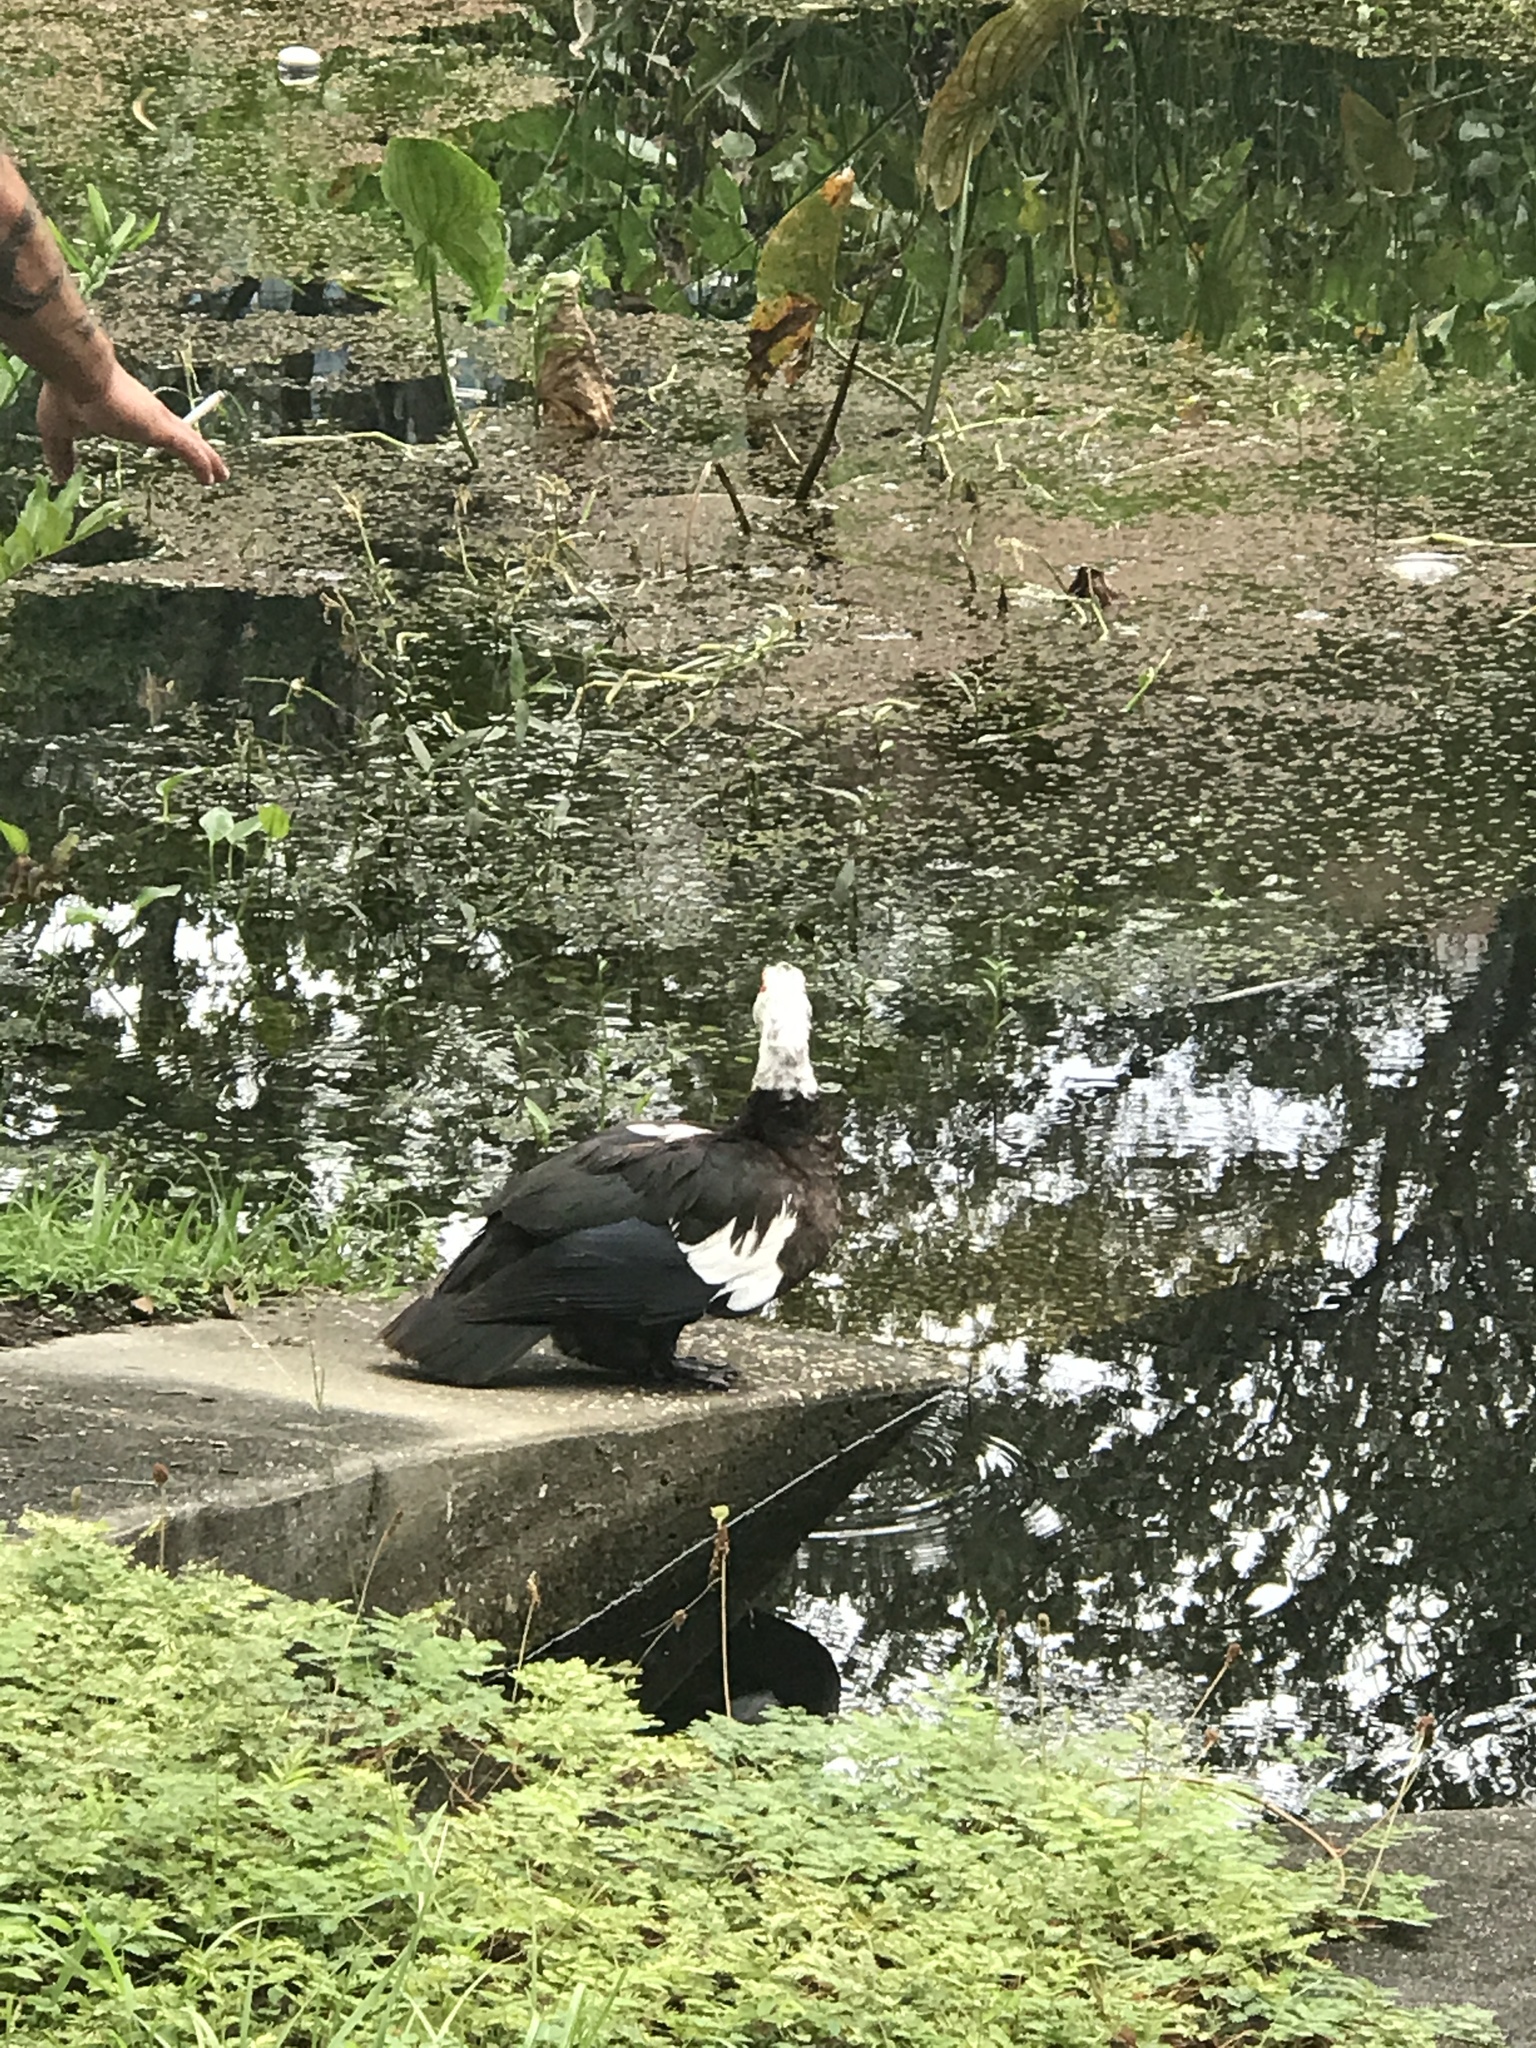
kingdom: Animalia
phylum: Chordata
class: Aves
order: Anseriformes
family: Anatidae
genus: Cairina
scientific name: Cairina moschata
